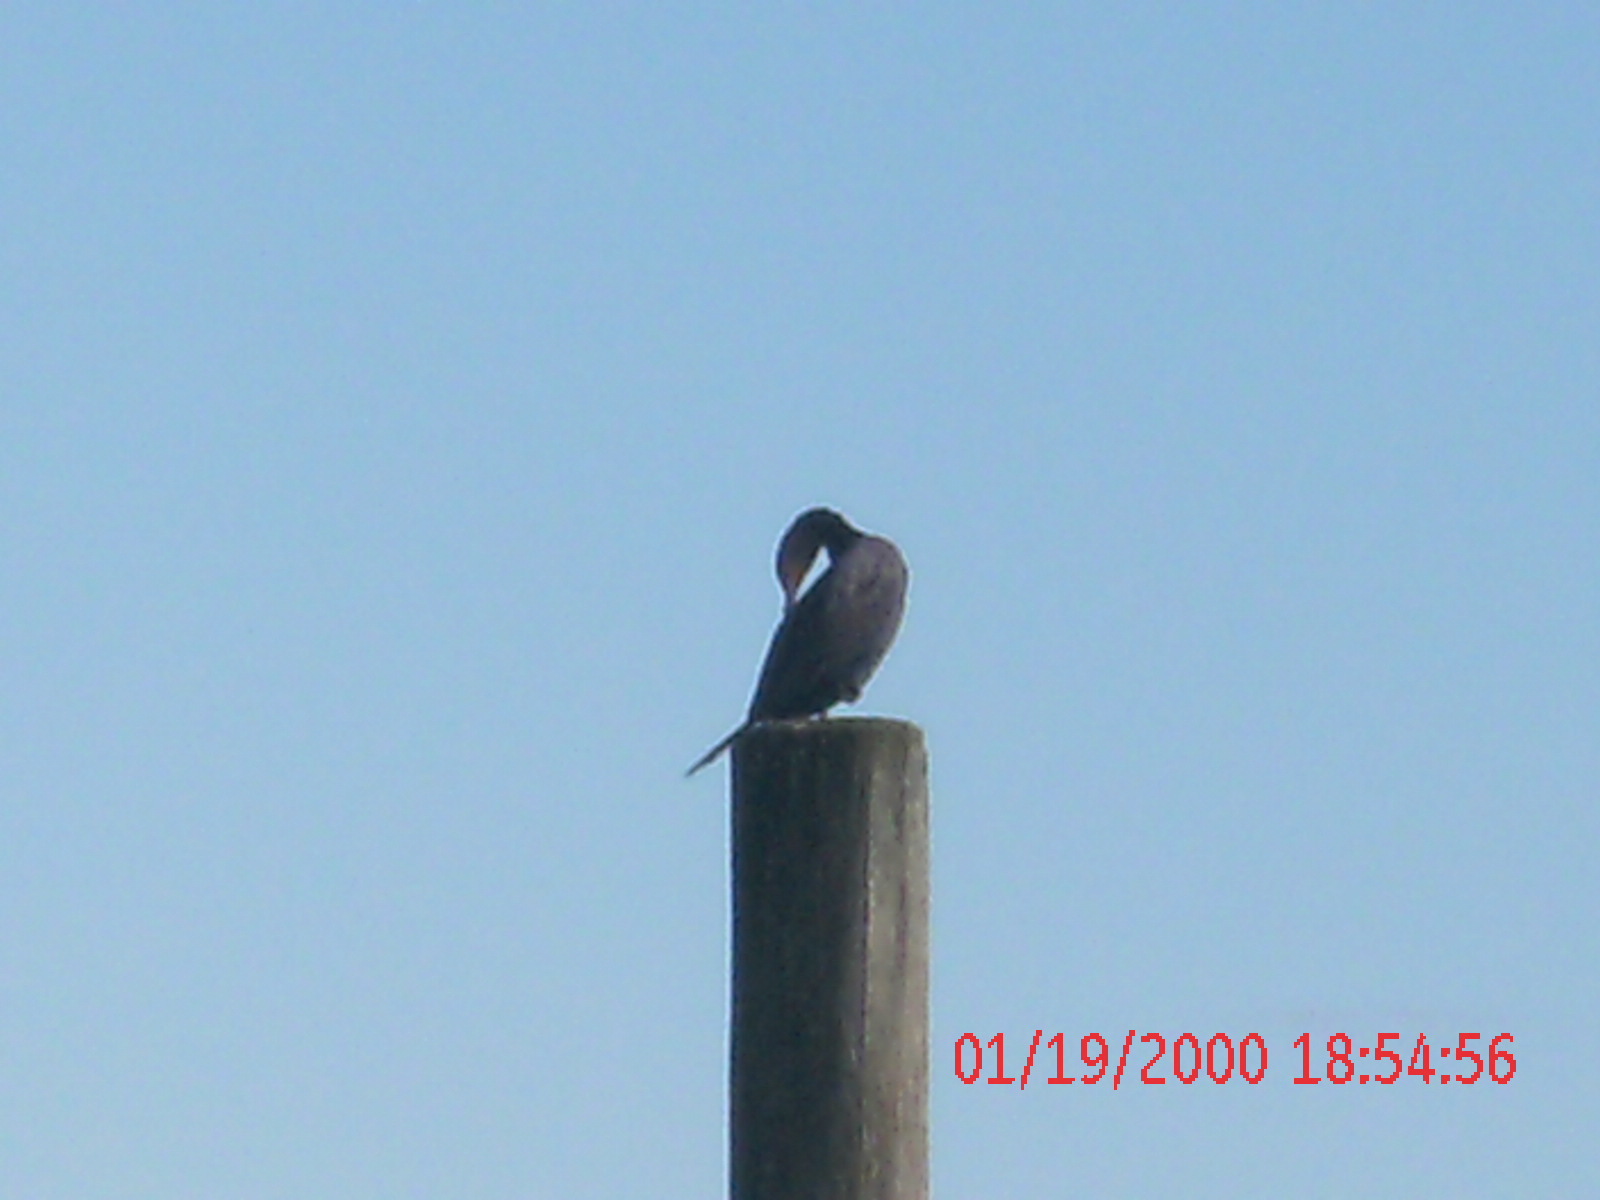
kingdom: Animalia
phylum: Chordata
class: Aves
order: Suliformes
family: Phalacrocoracidae
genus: Phalacrocorax
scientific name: Phalacrocorax auritus
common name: Double-crested cormorant
